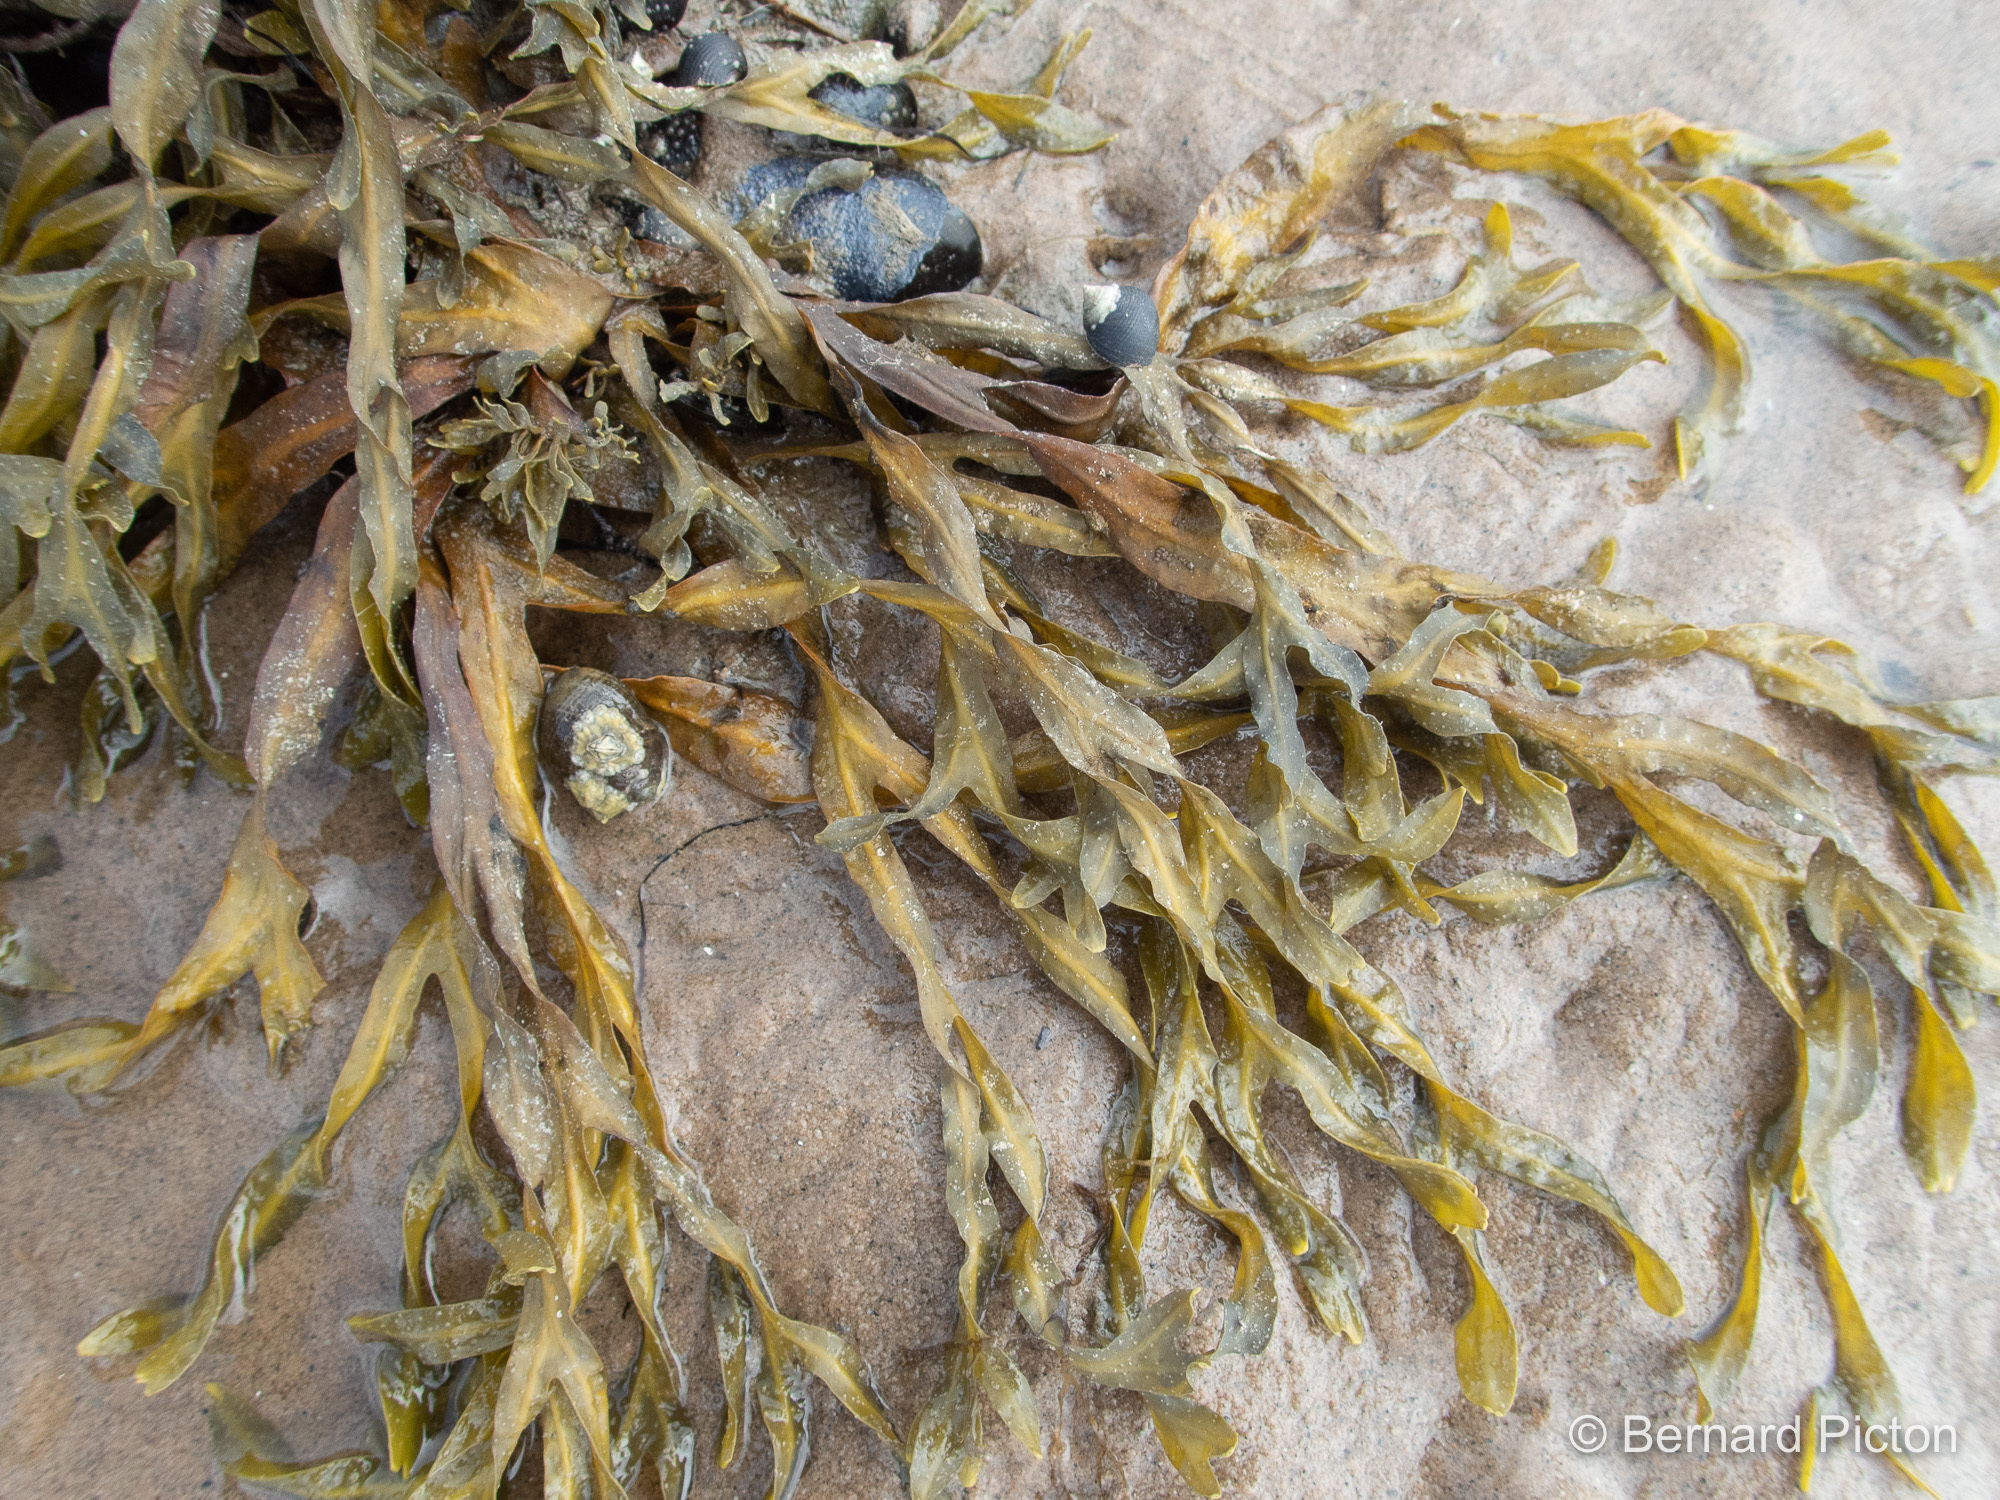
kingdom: Chromista
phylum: Ochrophyta
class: Phaeophyceae
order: Fucales
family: Fucaceae
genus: Fucus
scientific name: Fucus vesiculosus
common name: Bladder wrack
